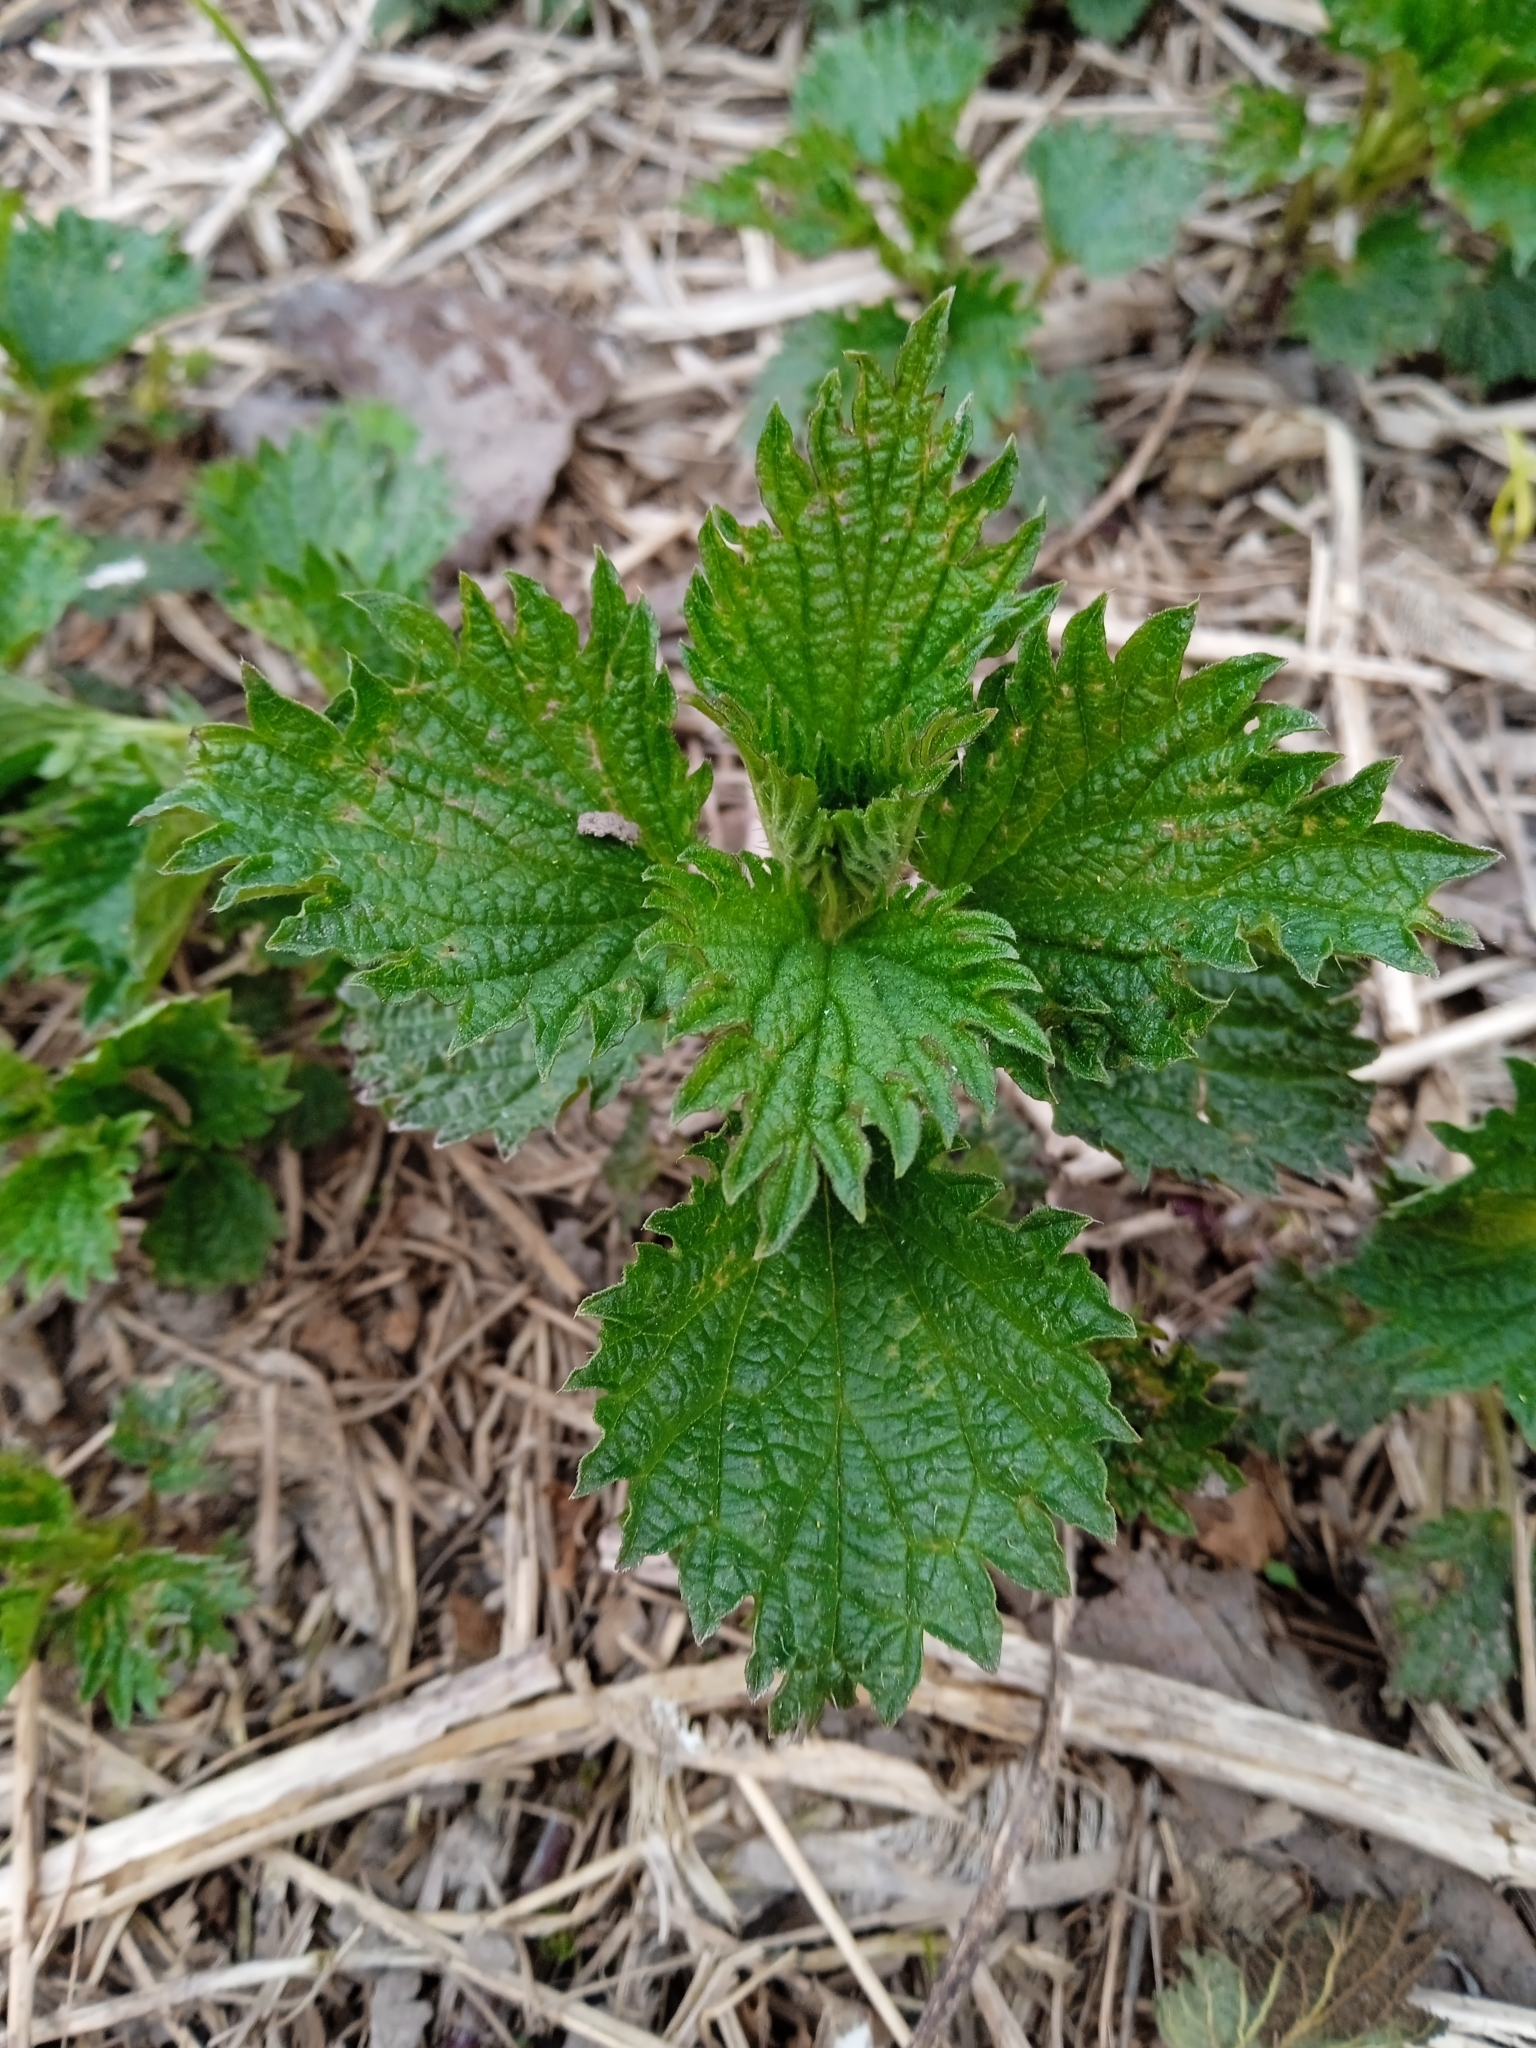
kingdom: Plantae
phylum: Tracheophyta
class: Magnoliopsida
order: Rosales
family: Urticaceae
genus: Urtica
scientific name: Urtica dioica
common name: Common nettle
